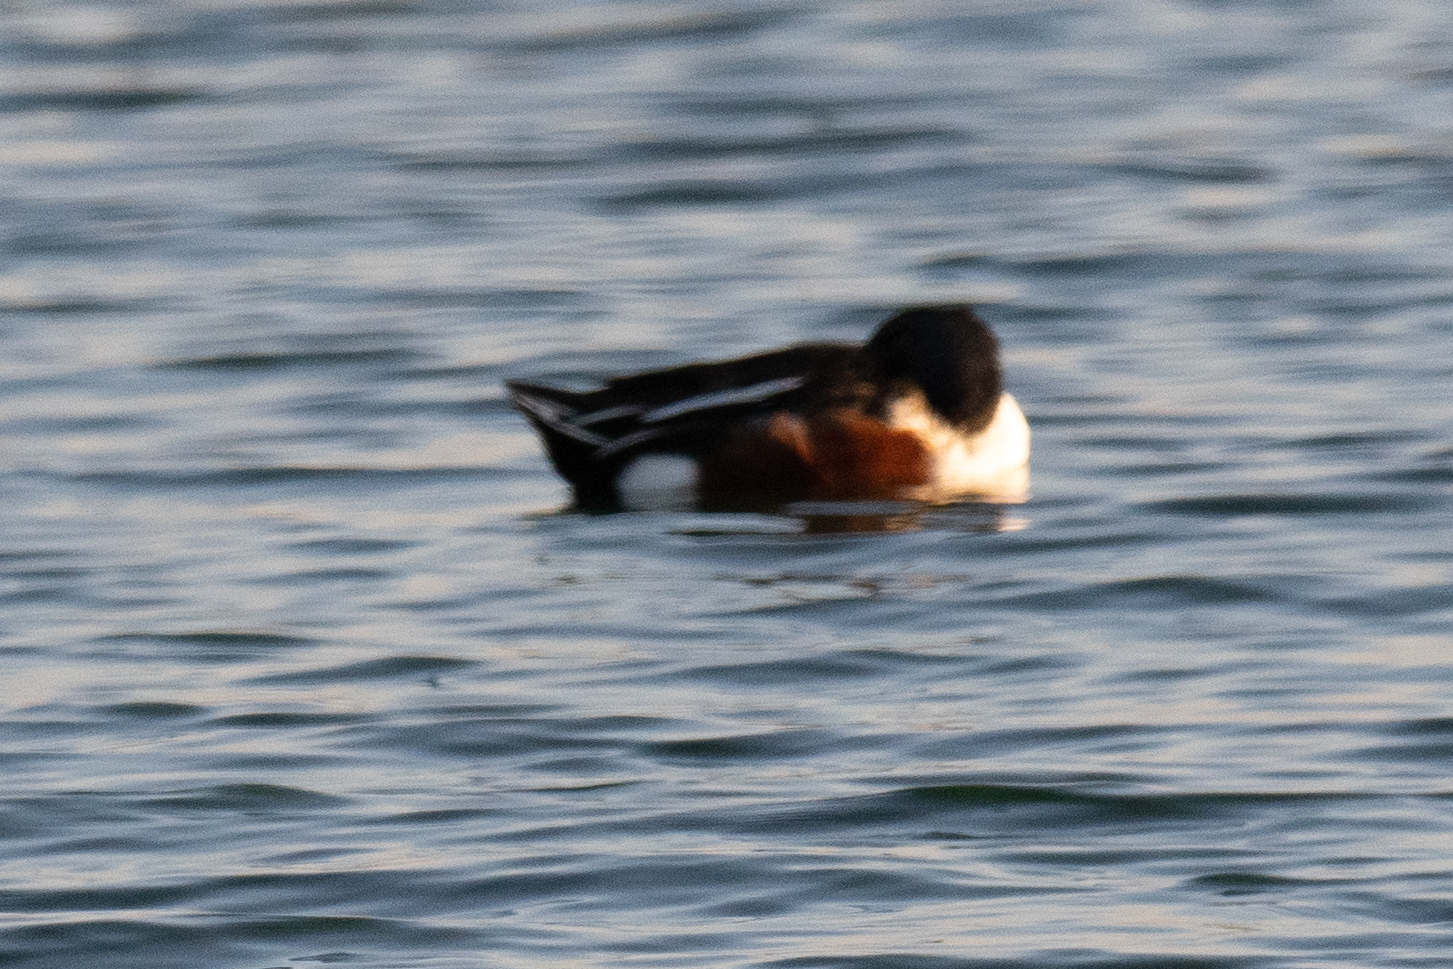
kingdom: Animalia
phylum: Chordata
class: Aves
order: Anseriformes
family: Anatidae
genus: Spatula
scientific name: Spatula clypeata
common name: Northern shoveler
